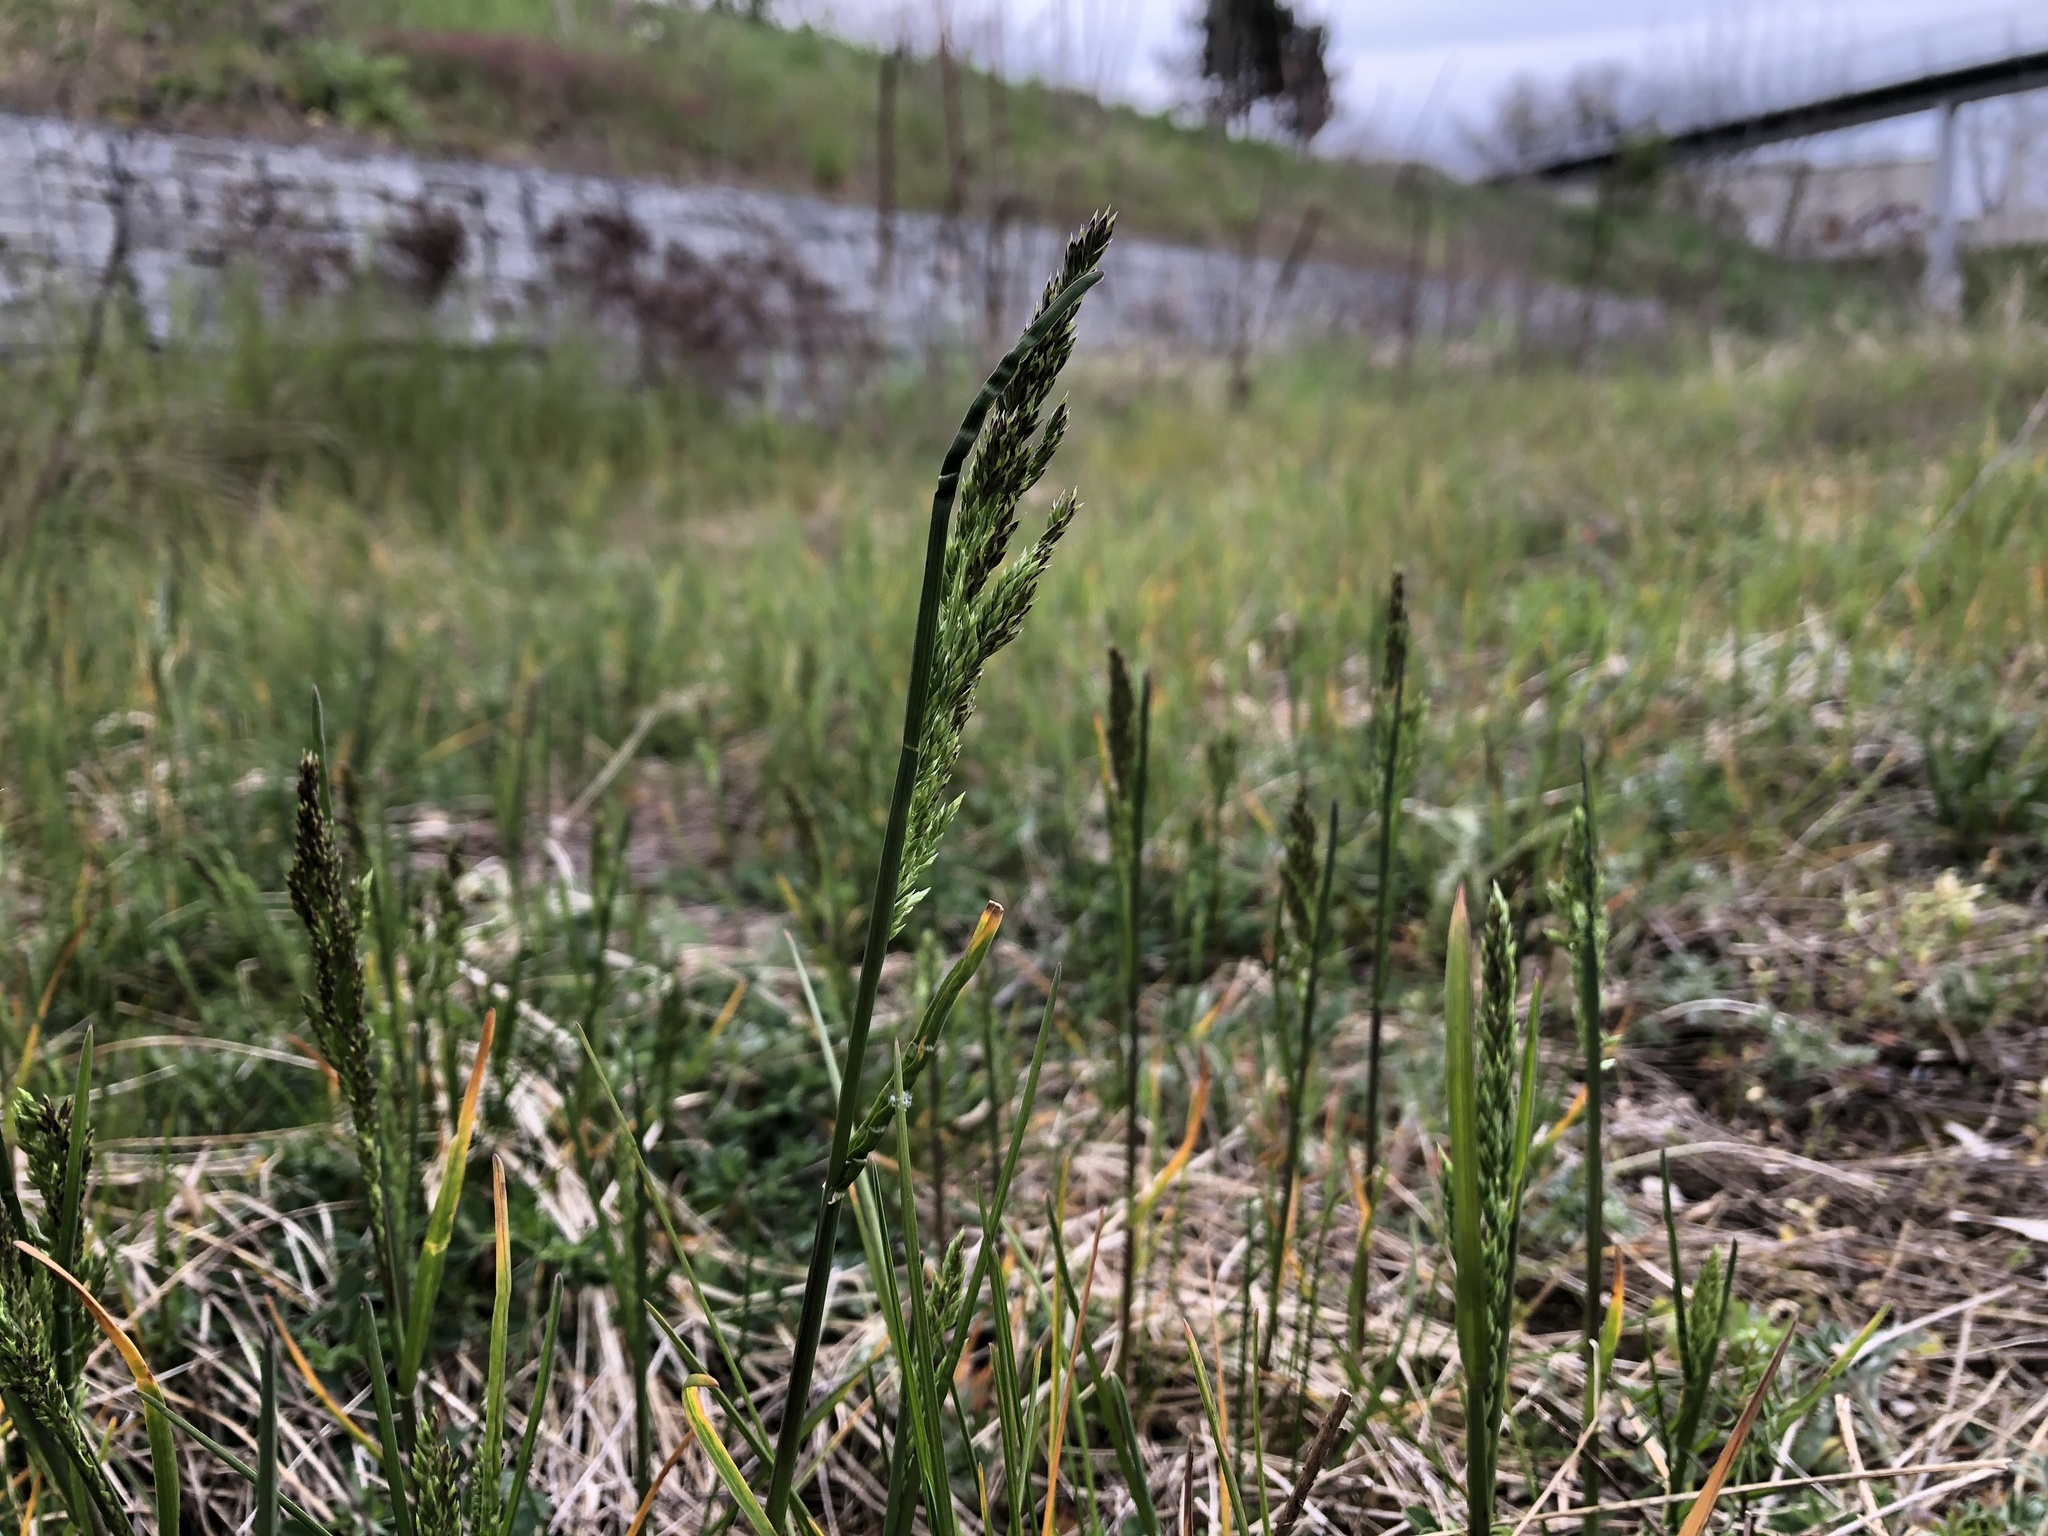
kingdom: Plantae
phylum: Tracheophyta
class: Liliopsida
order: Poales
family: Poaceae
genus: Poa
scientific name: Poa pratensis
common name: Kentucky bluegrass
